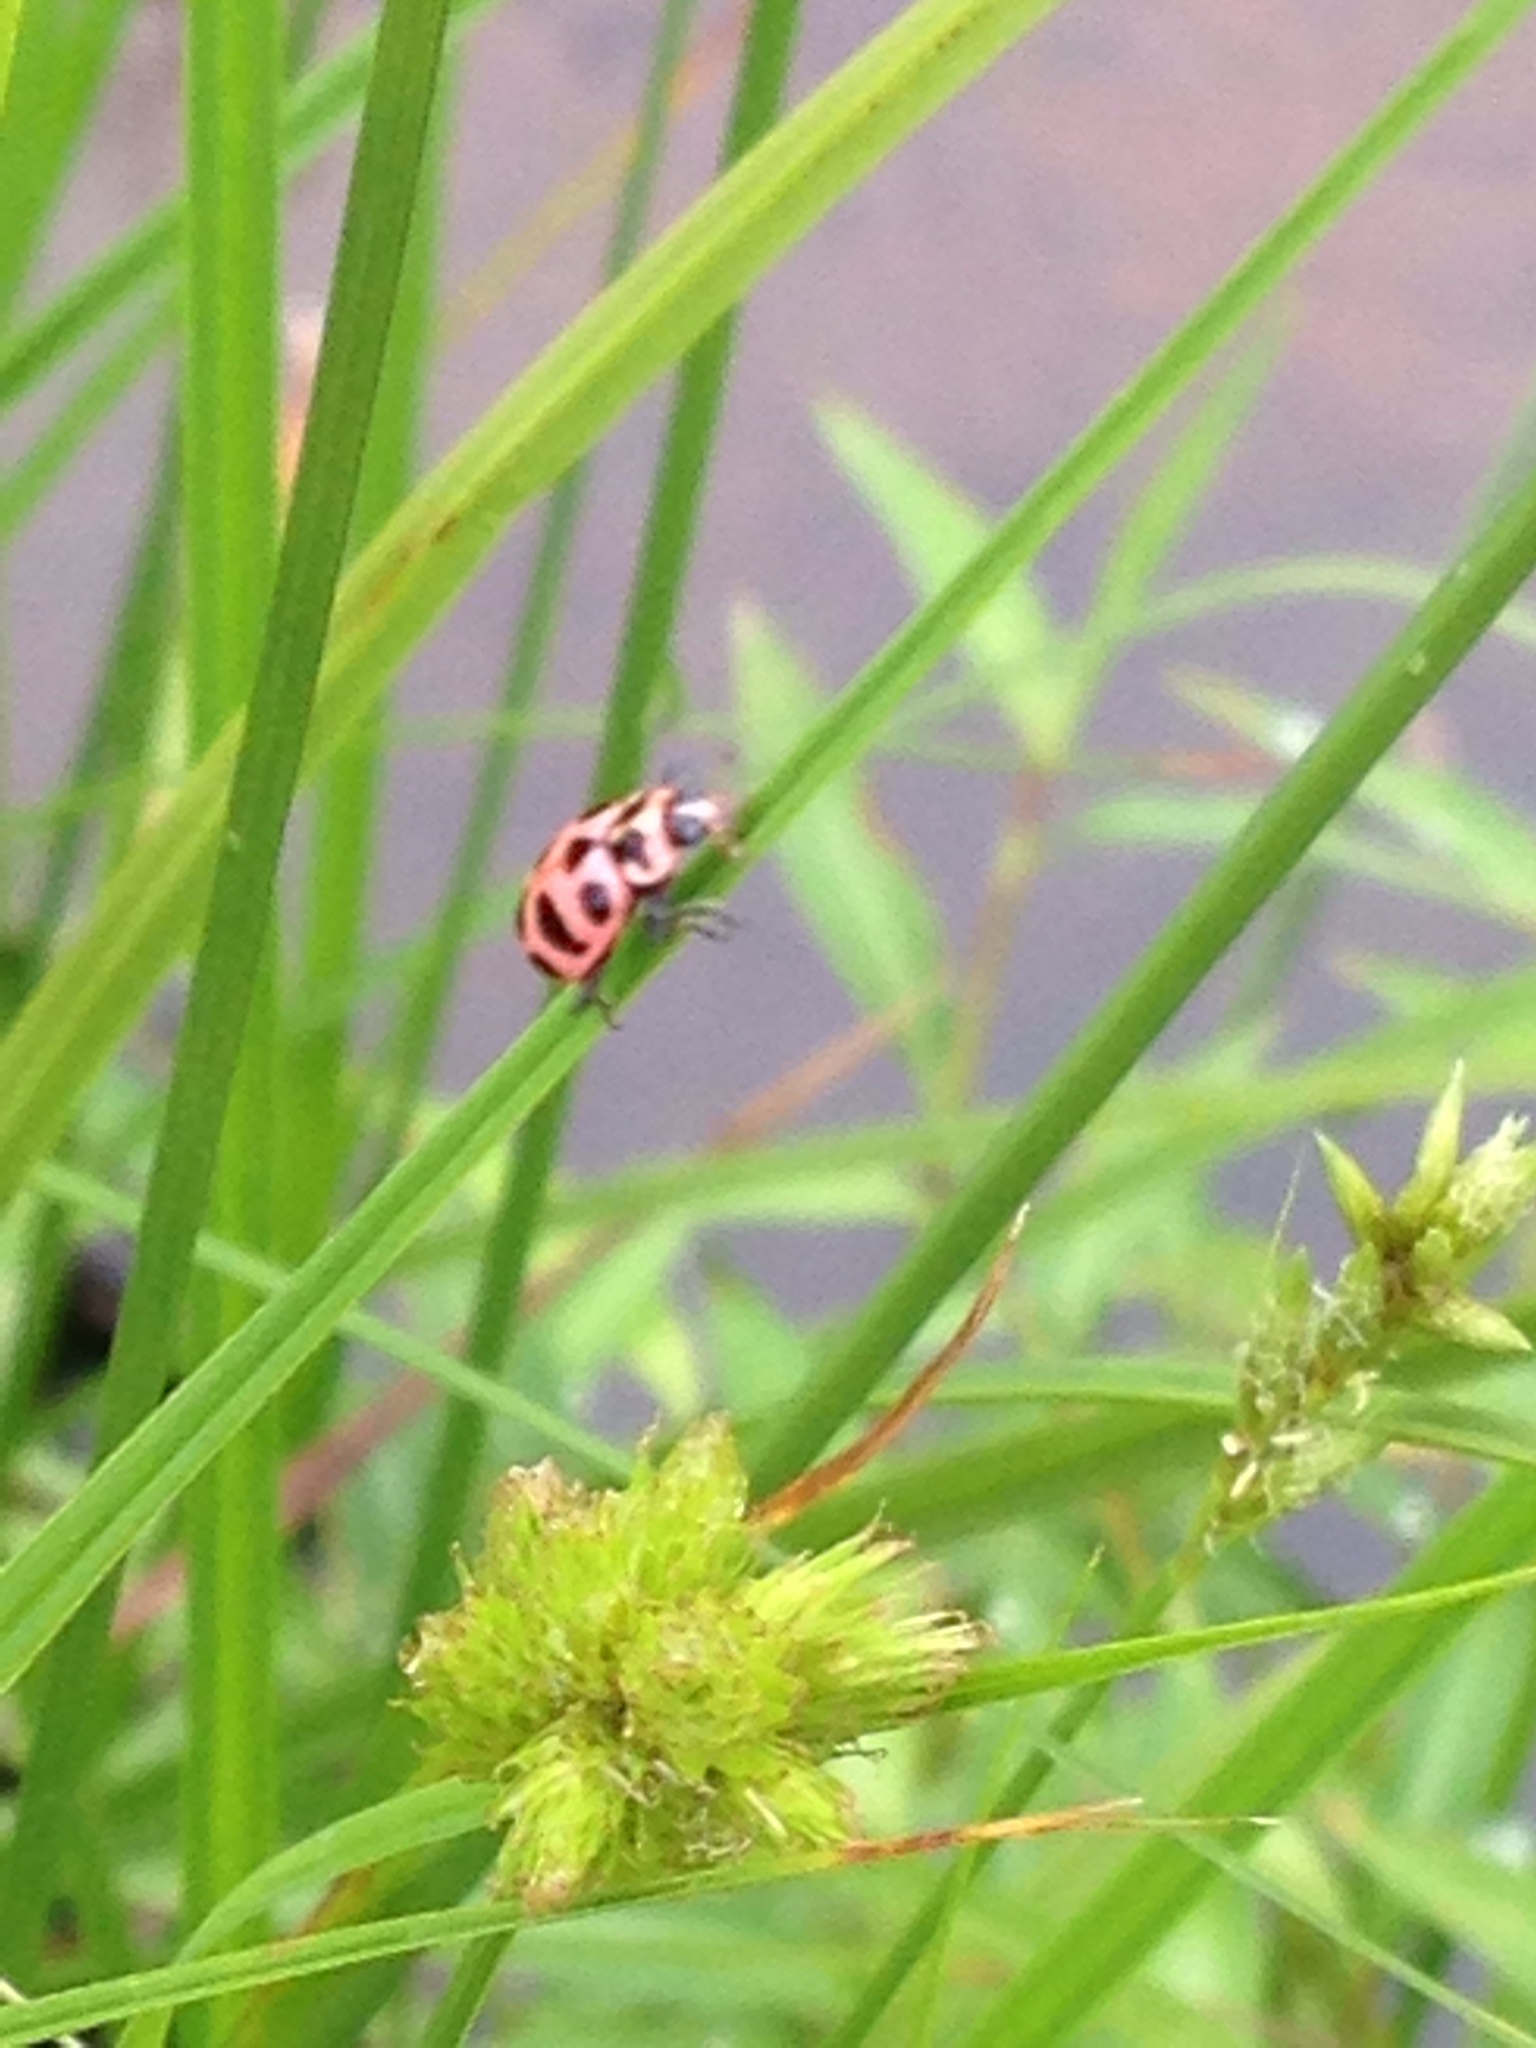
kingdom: Animalia
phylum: Arthropoda
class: Insecta
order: Coleoptera
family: Coccinellidae
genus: Coleomegilla
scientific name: Coleomegilla maculata
